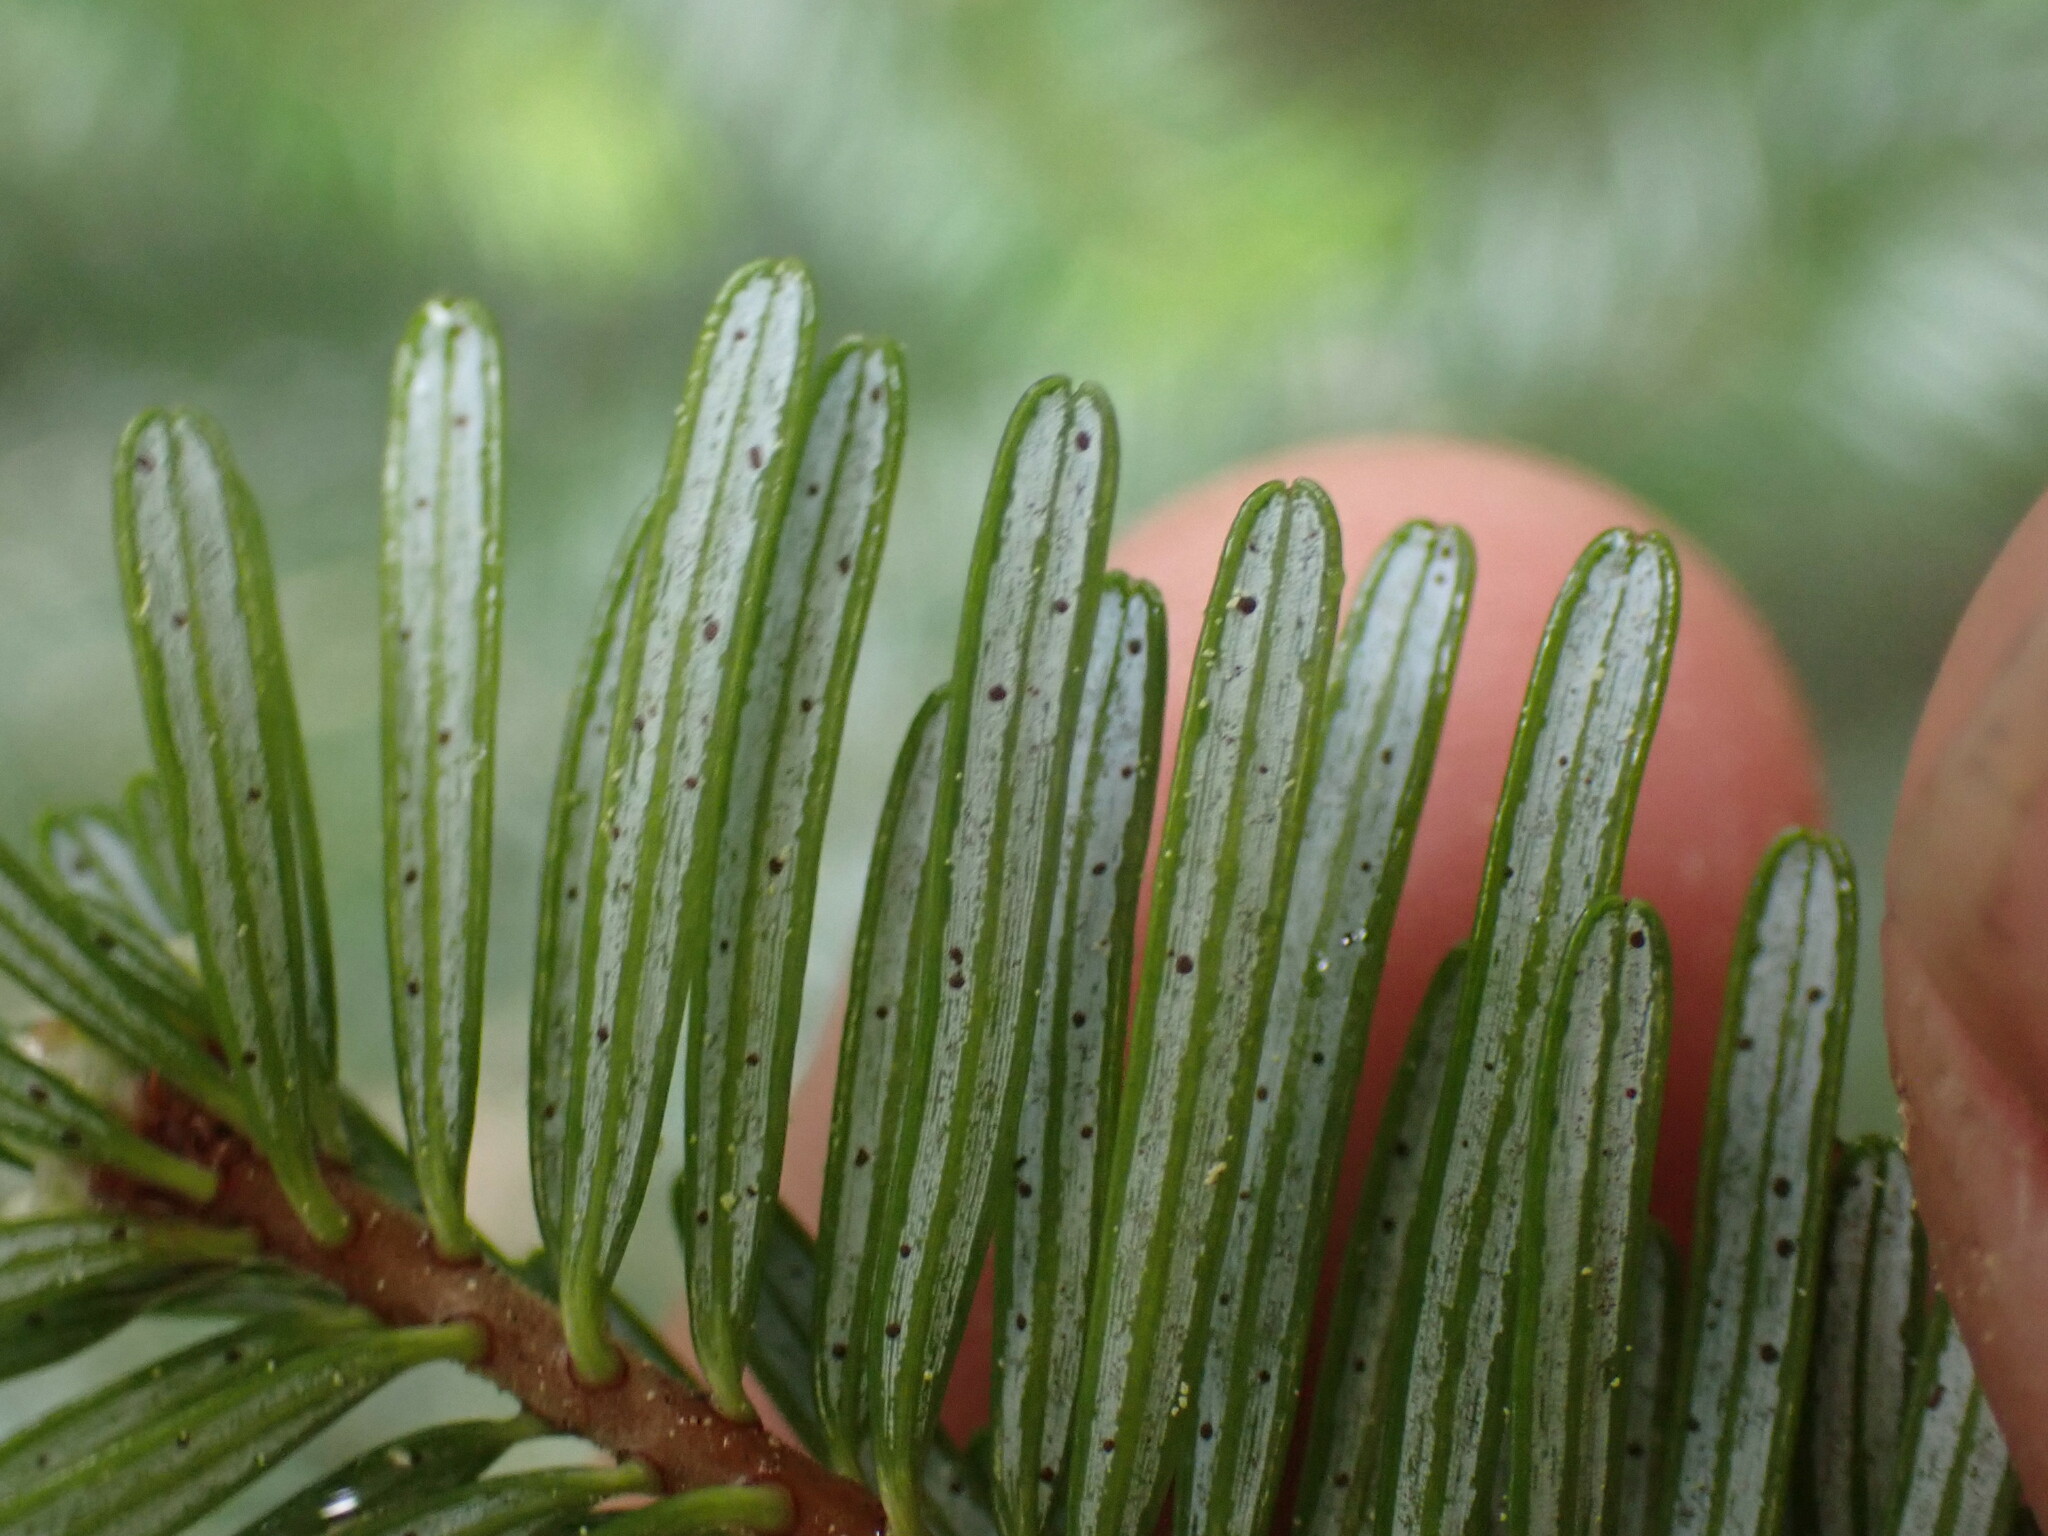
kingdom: Plantae
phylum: Tracheophyta
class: Pinopsida
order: Pinales
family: Pinaceae
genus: Abies
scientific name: Abies amabilis
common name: Pacific silver fir
